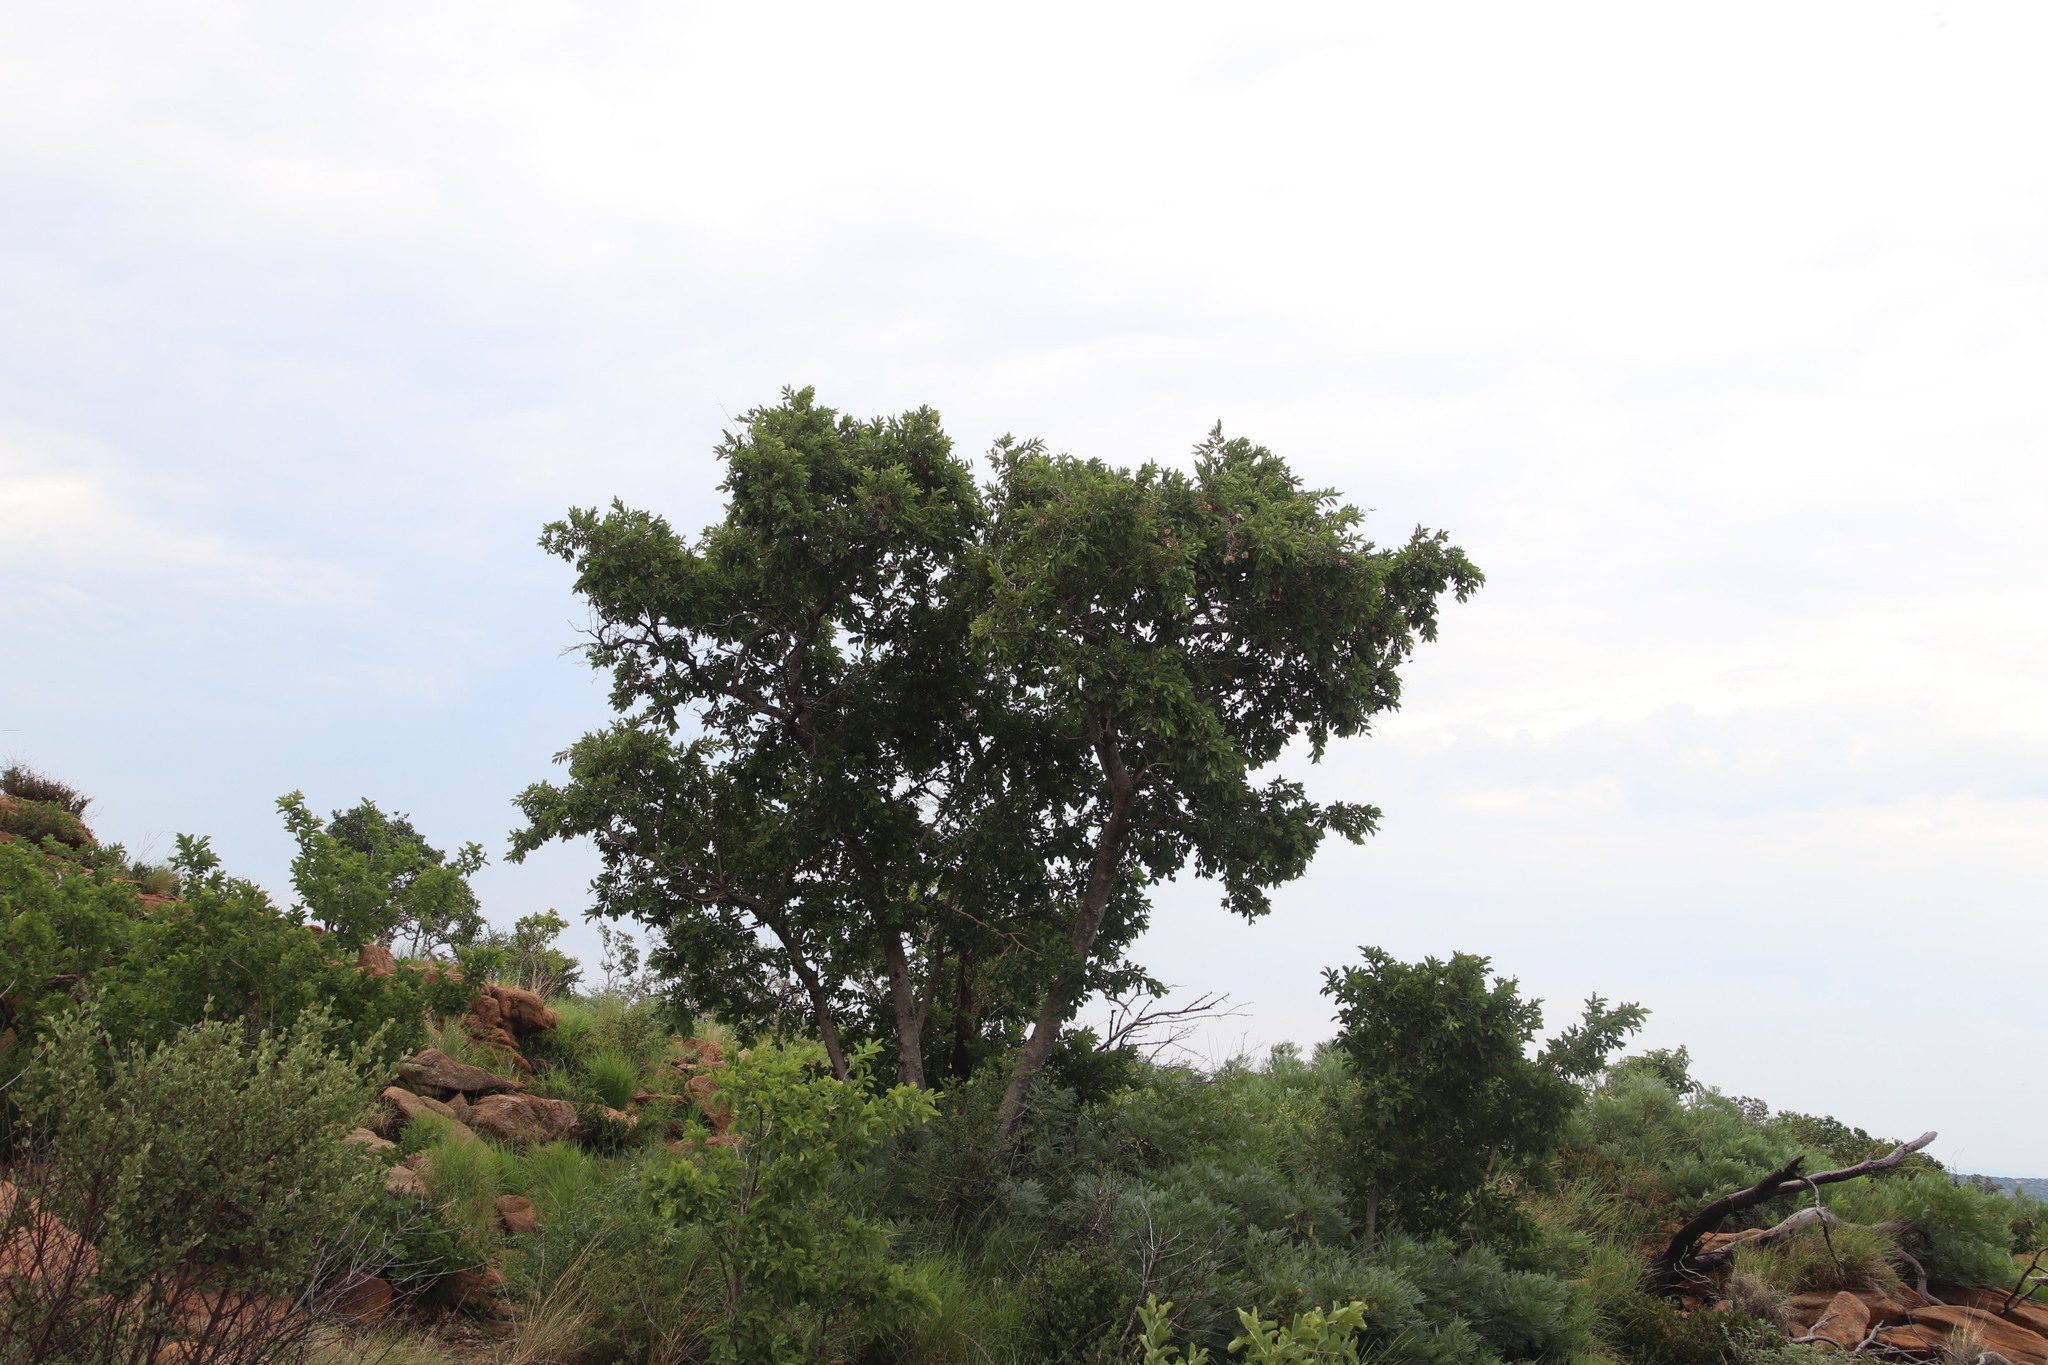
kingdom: Plantae
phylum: Tracheophyta
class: Magnoliopsida
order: Myrtales
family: Combretaceae
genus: Combretum
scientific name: Combretum zeyheri
